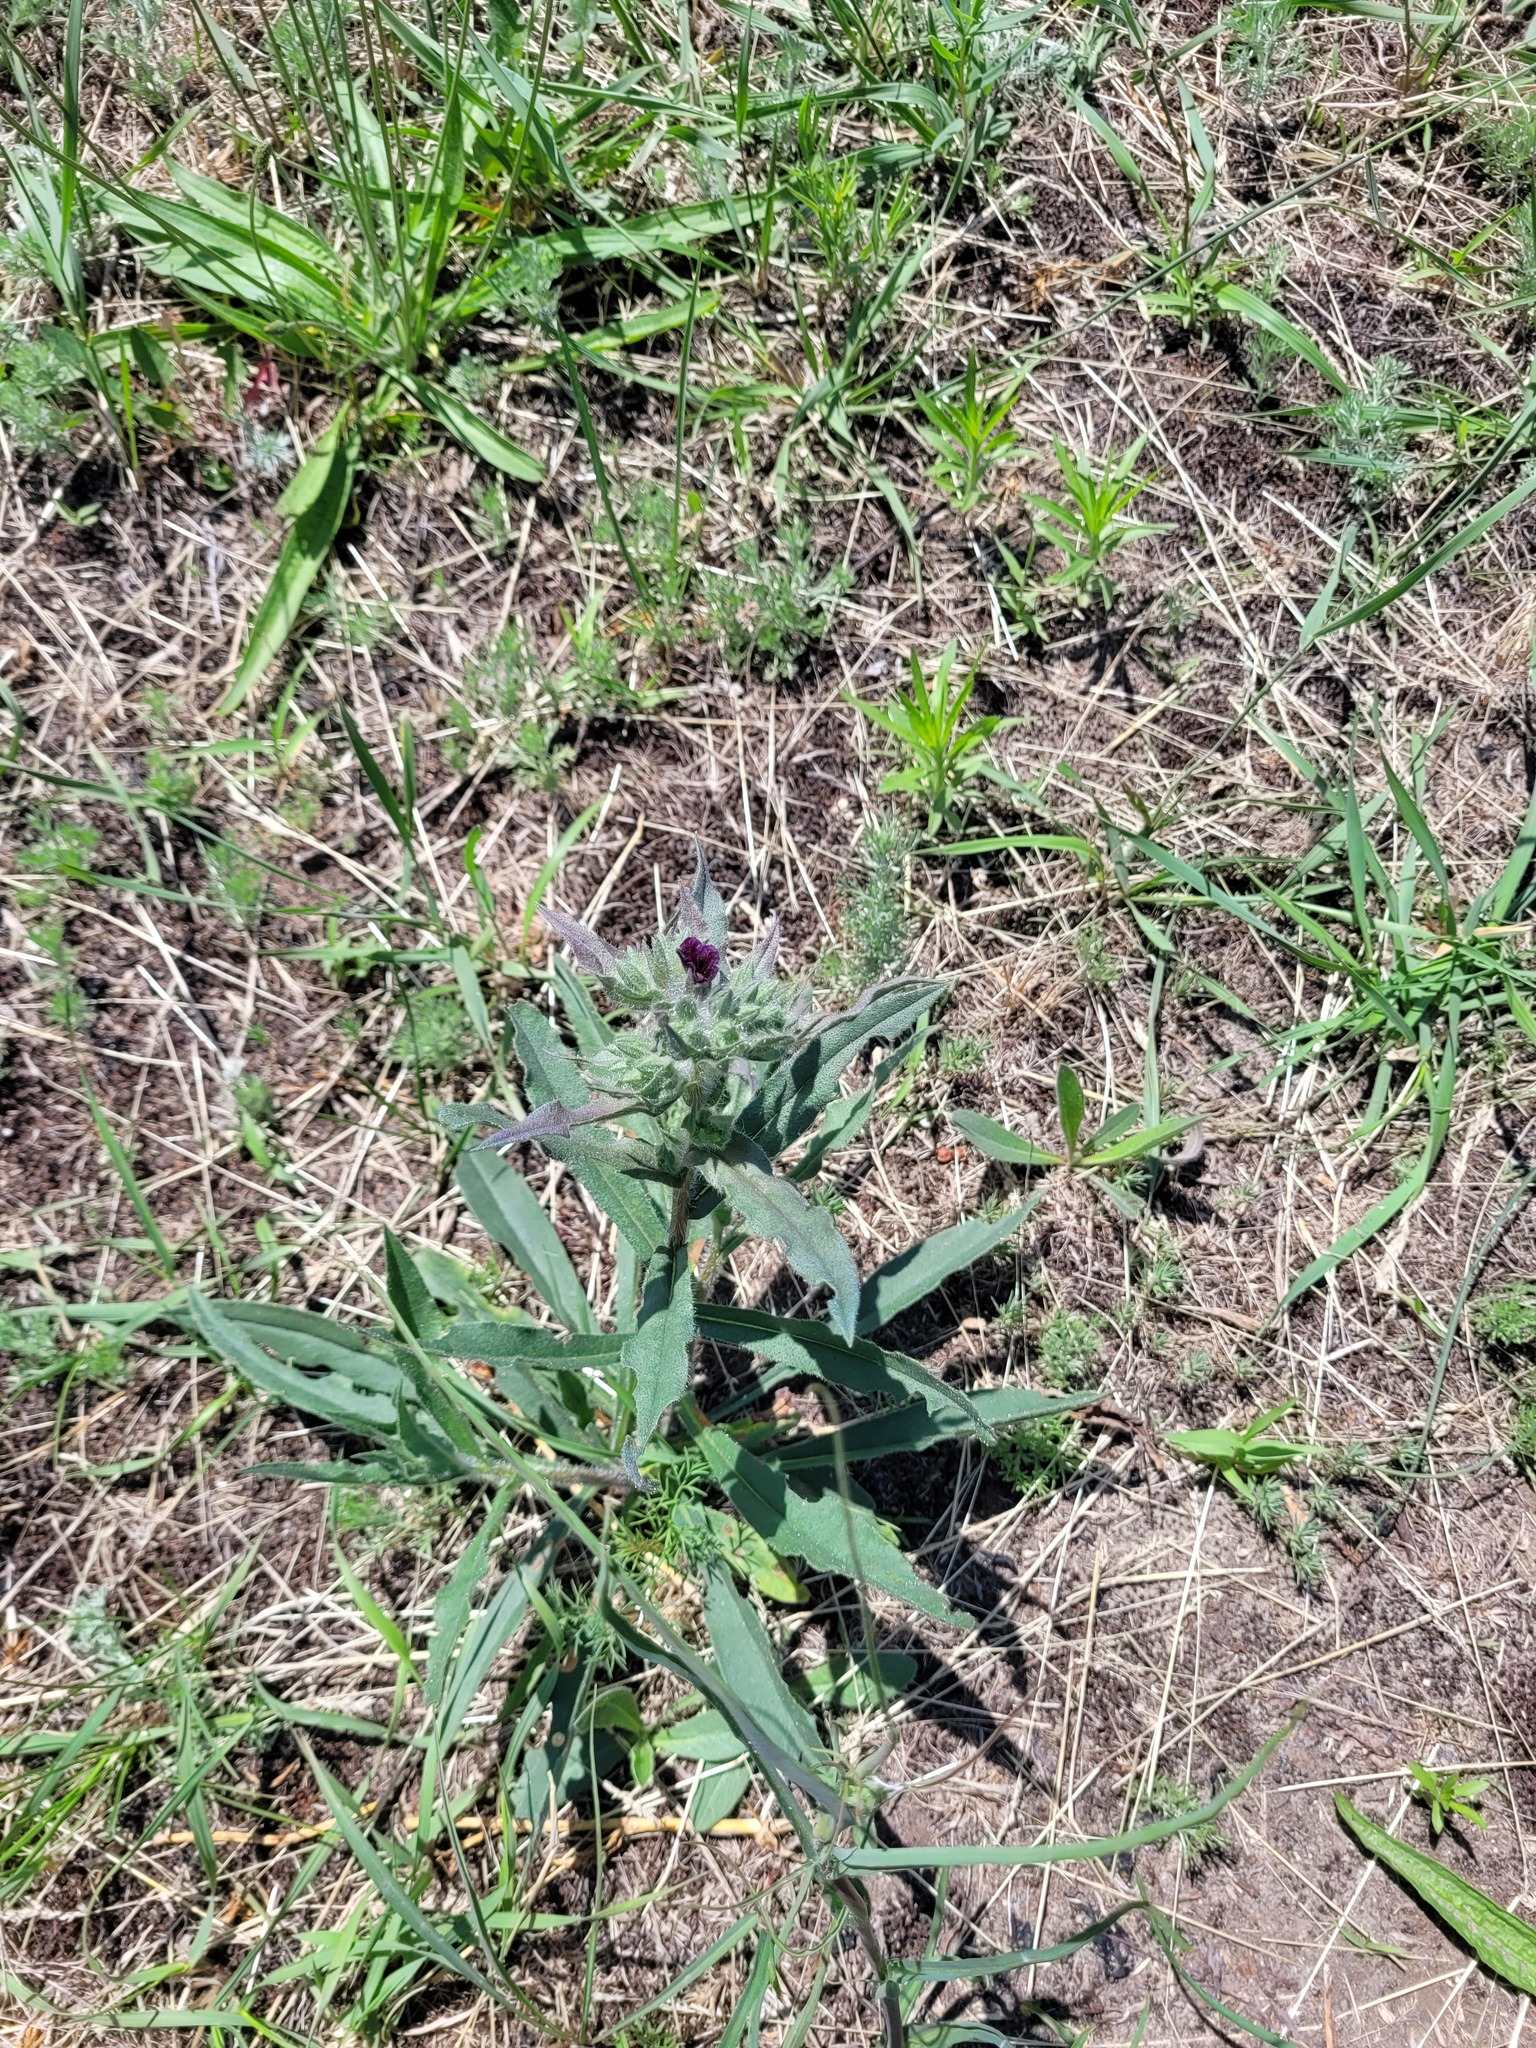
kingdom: Plantae
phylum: Tracheophyta
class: Magnoliopsida
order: Boraginales
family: Boraginaceae
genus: Nonea
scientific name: Nonea pulla
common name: Brown nonea
